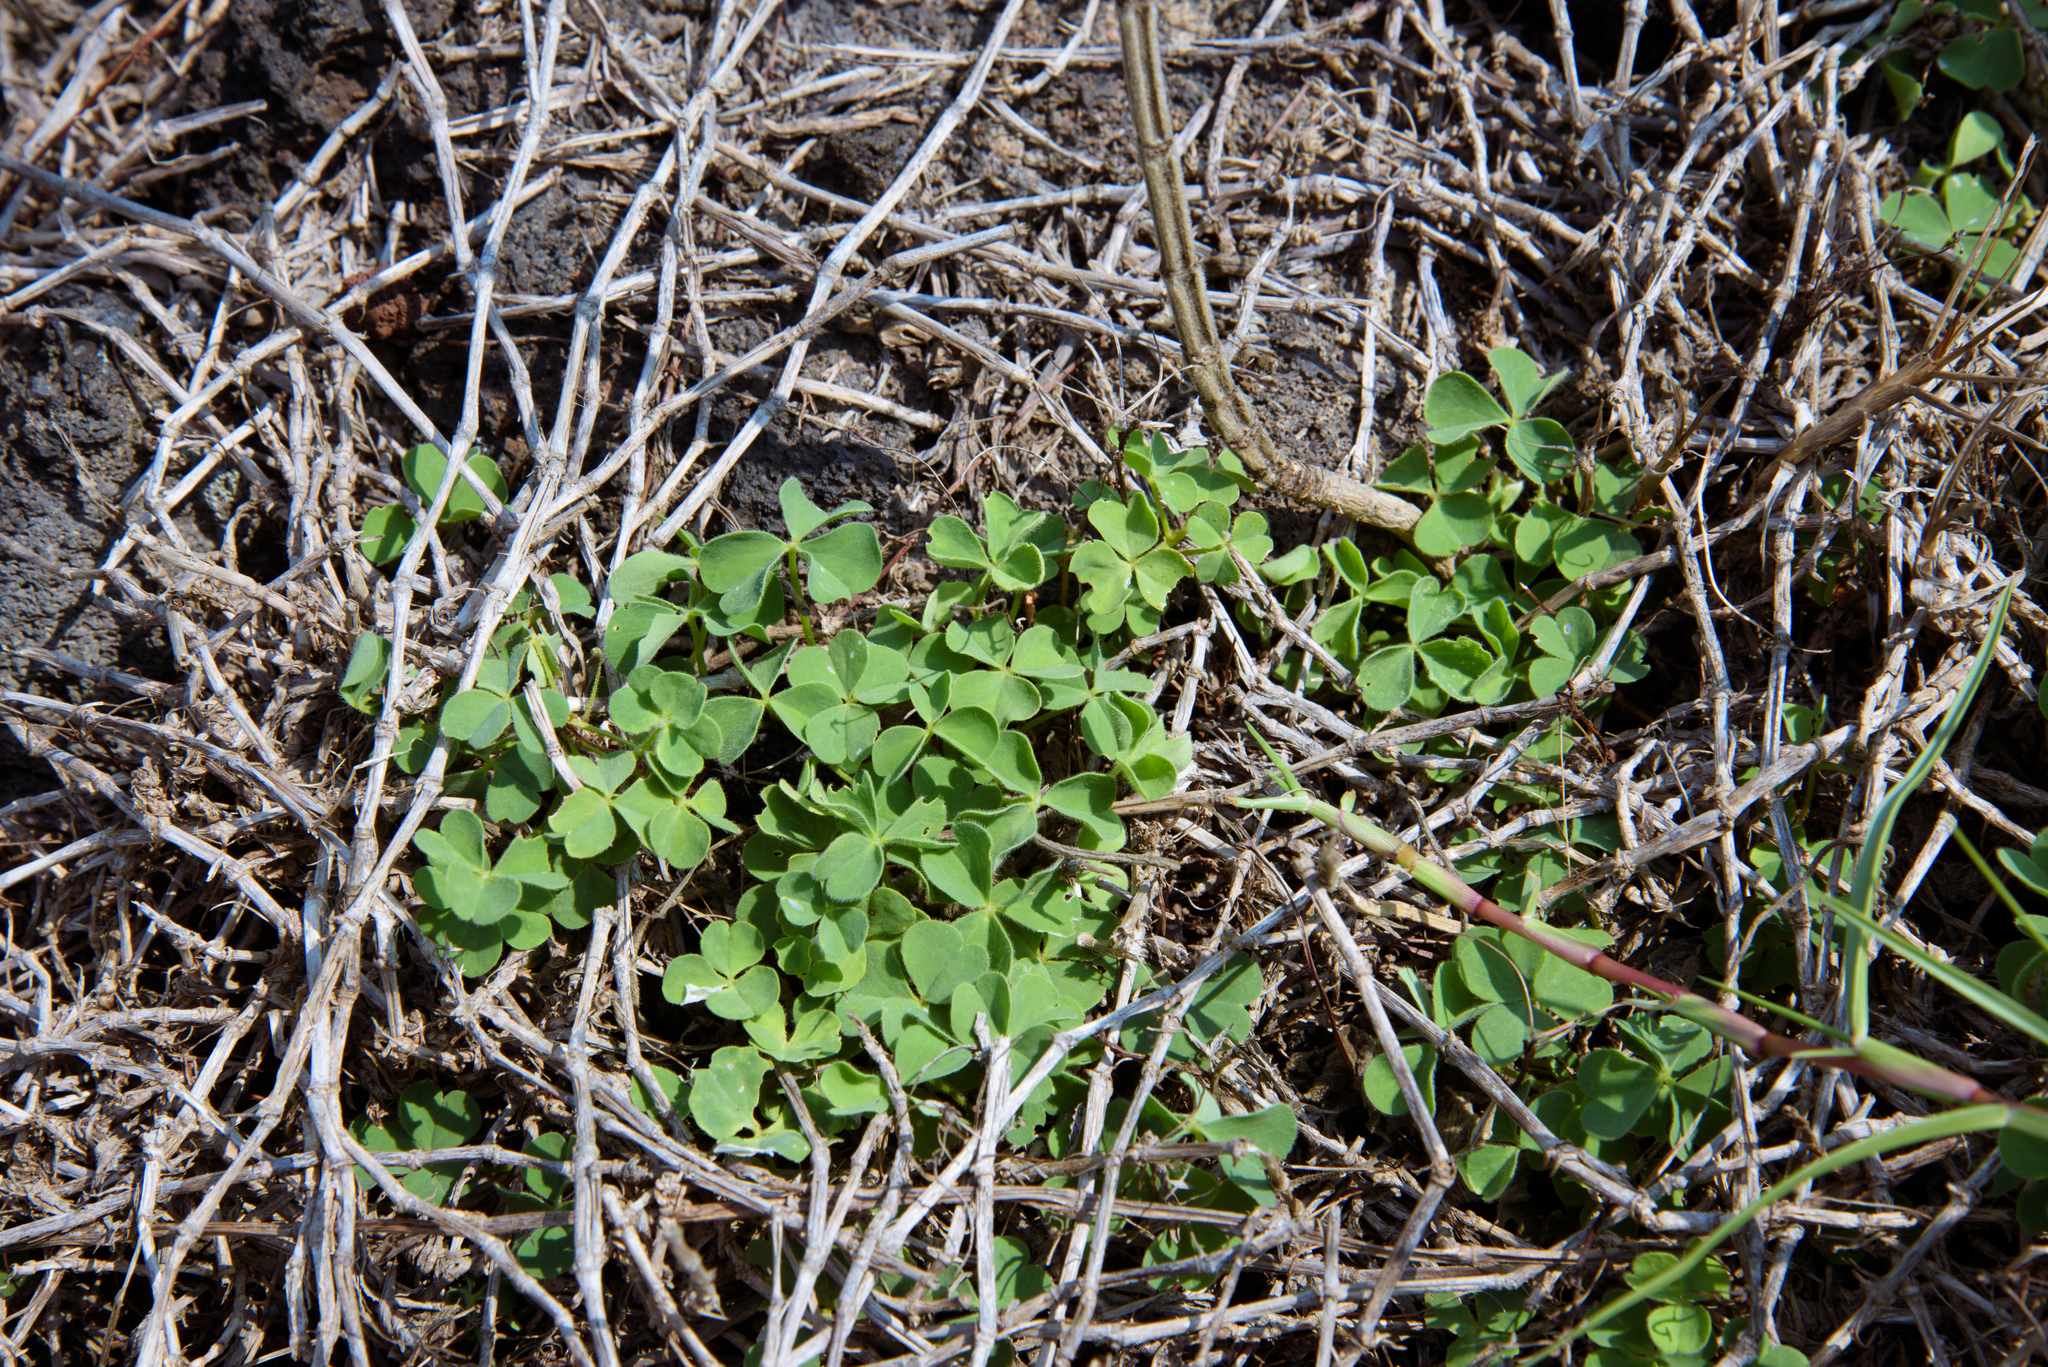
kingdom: Plantae
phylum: Tracheophyta
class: Magnoliopsida
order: Oxalidales
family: Oxalidaceae
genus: Oxalis
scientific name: Oxalis corniculata
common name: Procumbent yellow-sorrel
